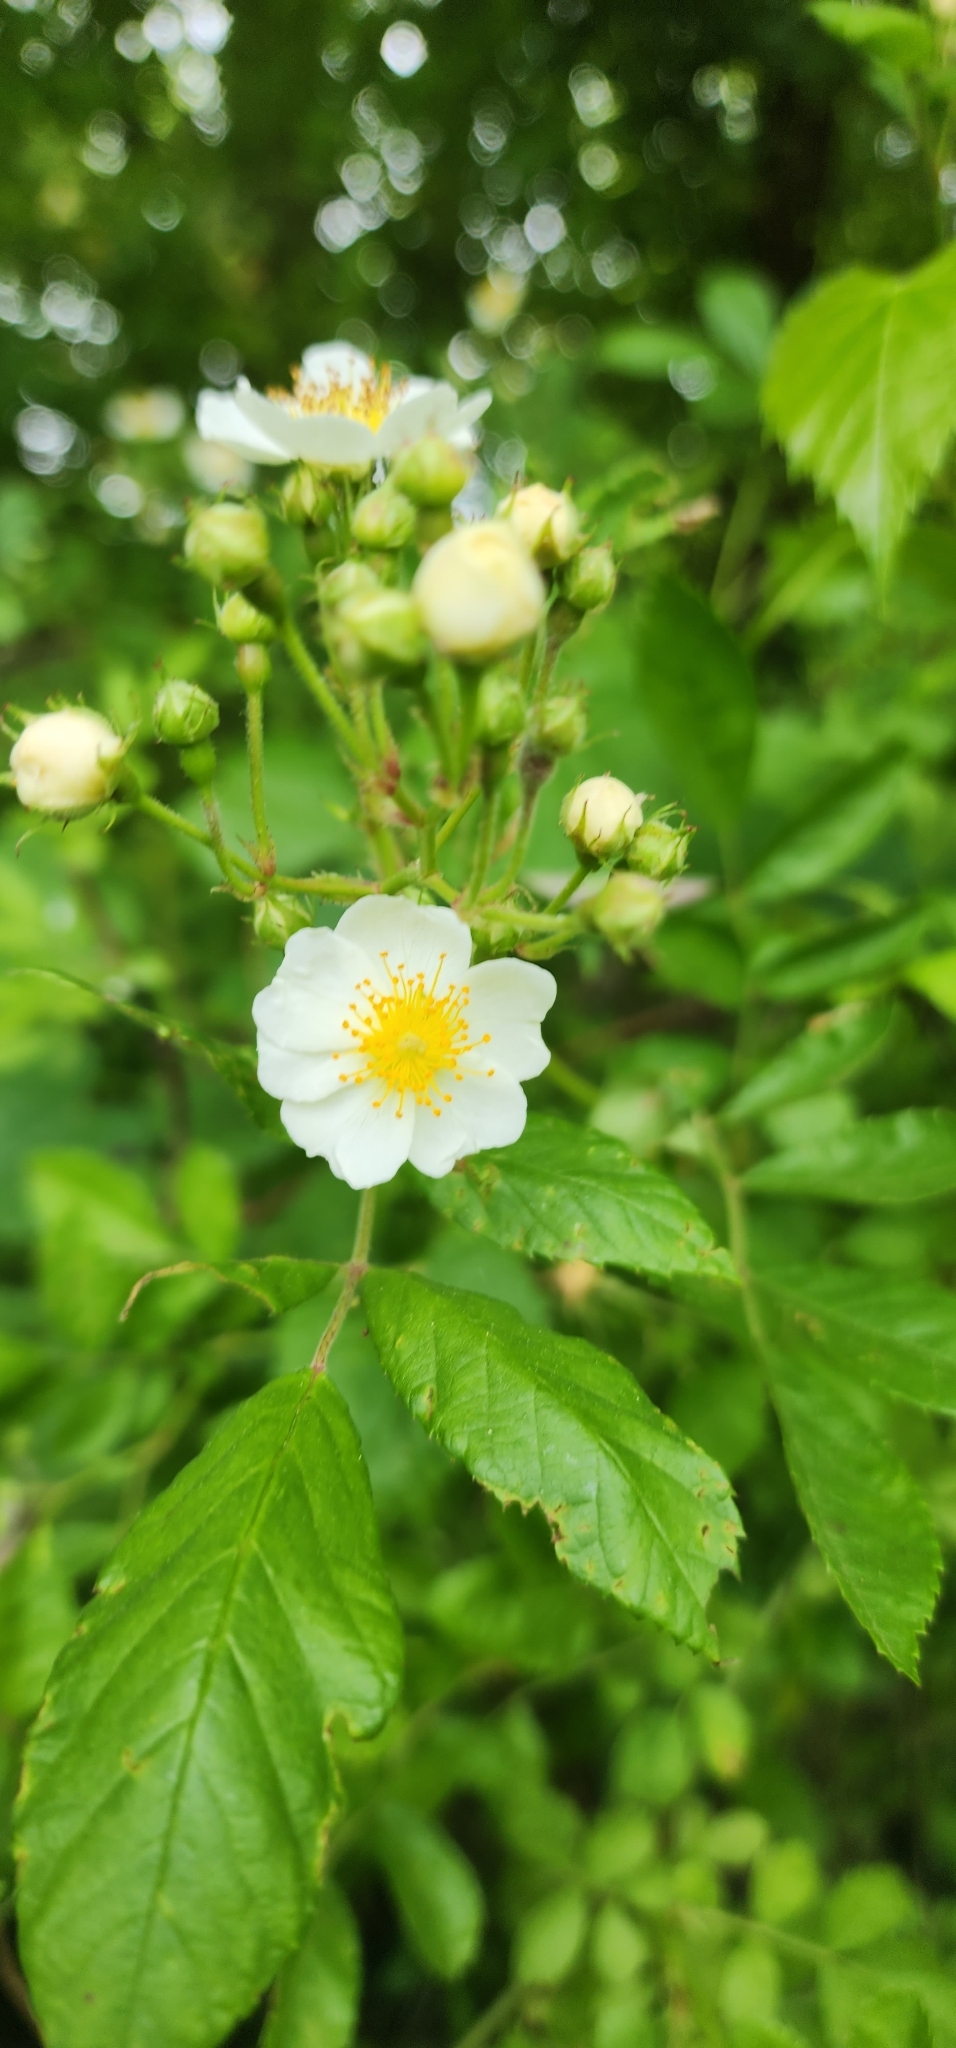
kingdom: Plantae
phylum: Tracheophyta
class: Magnoliopsida
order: Rosales
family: Rosaceae
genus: Rosa
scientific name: Rosa multiflora
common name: Multiflora rose
